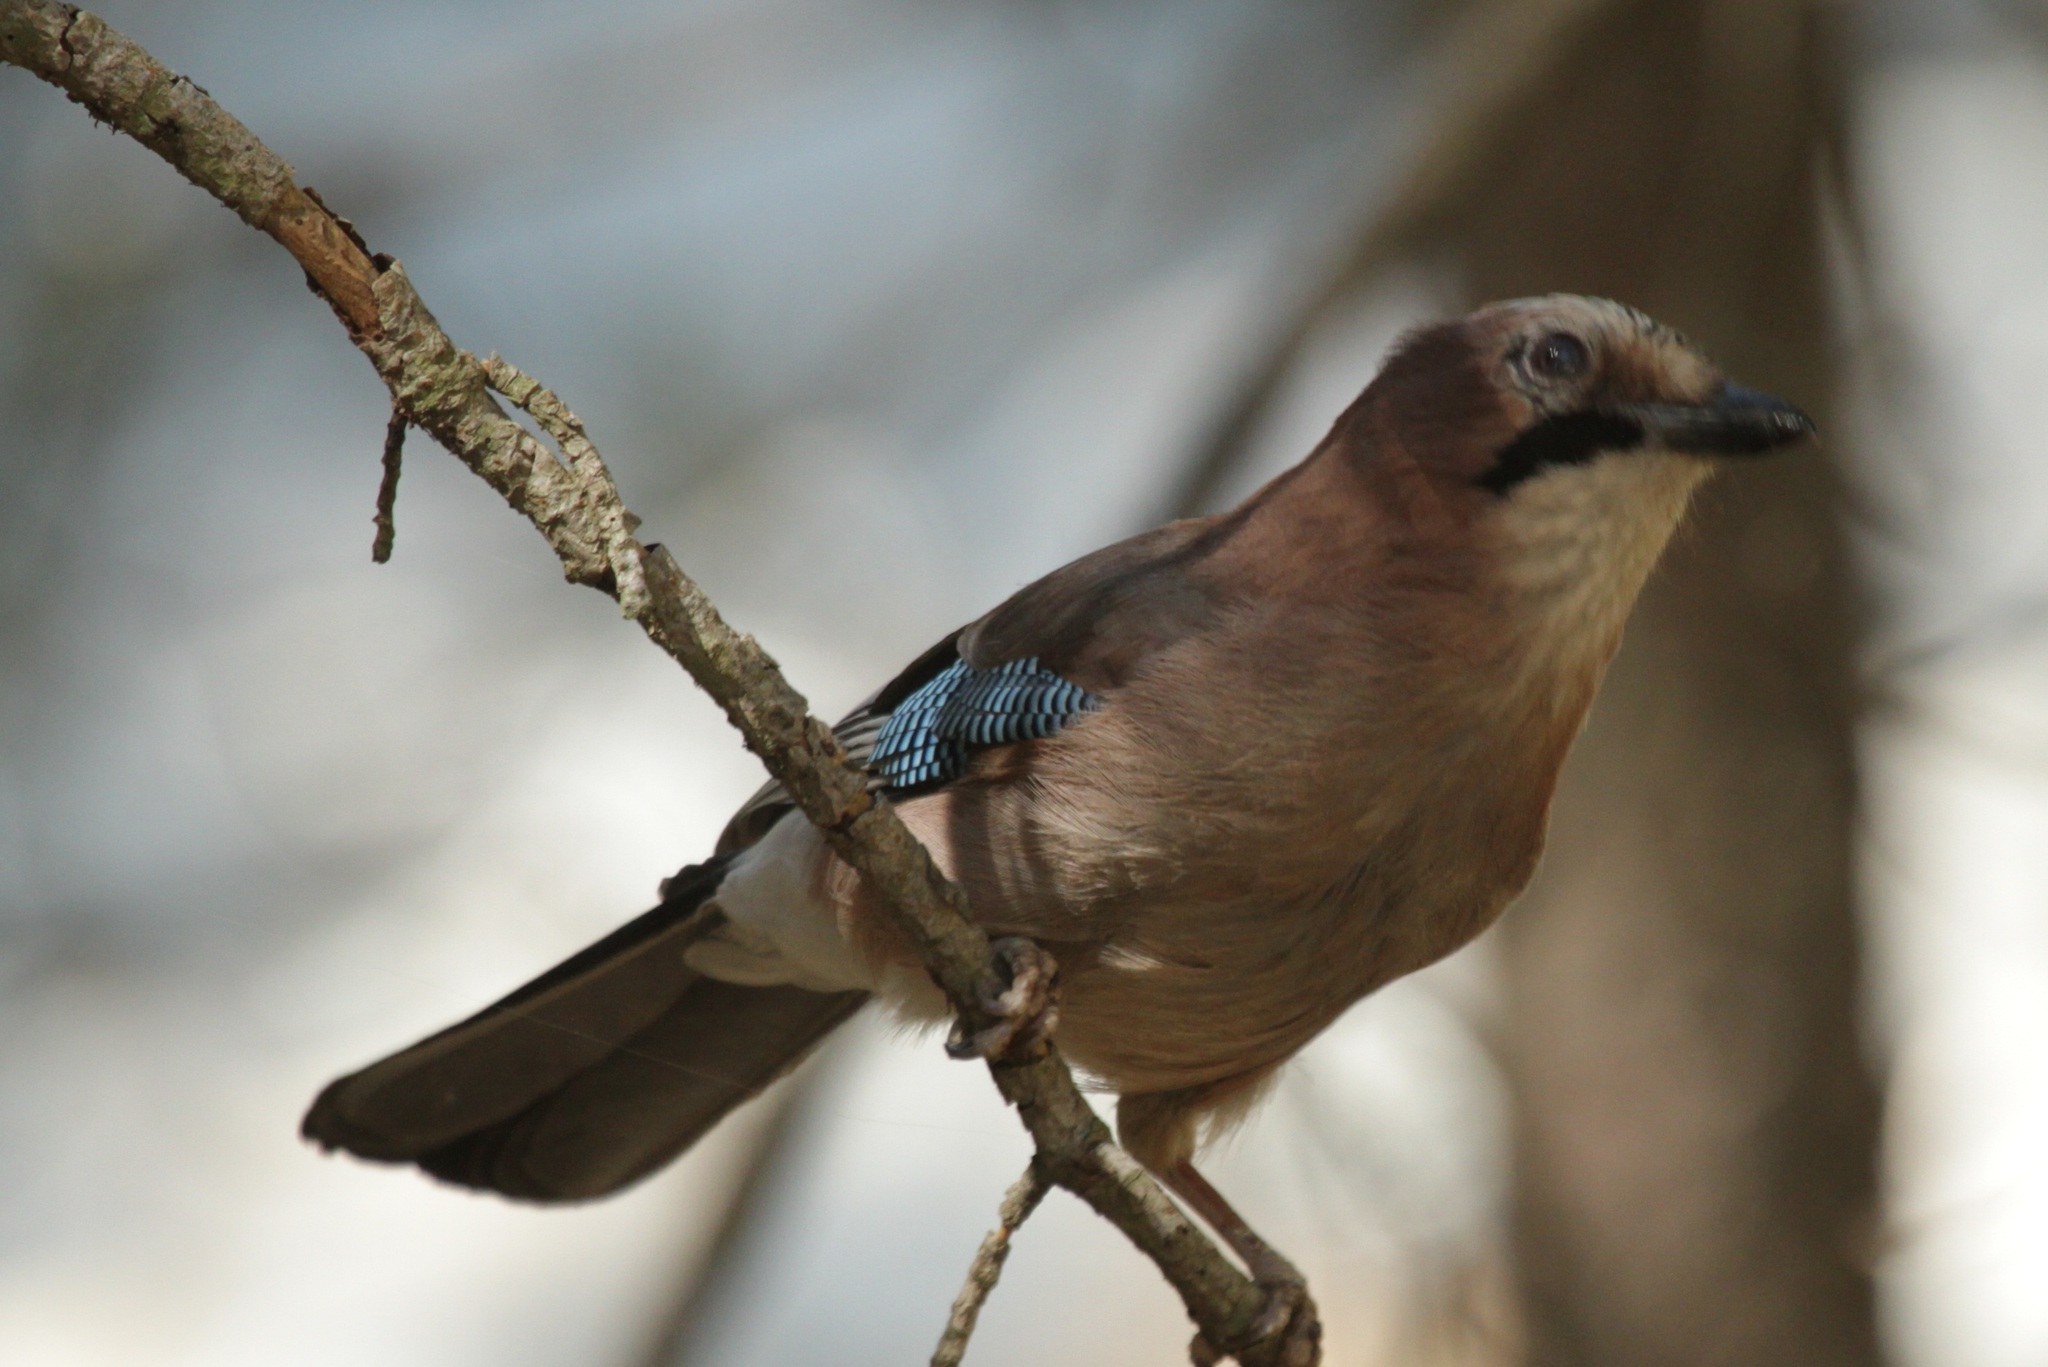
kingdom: Animalia
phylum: Chordata
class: Aves
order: Passeriformes
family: Corvidae
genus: Garrulus
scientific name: Garrulus glandarius
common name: Eurasian jay
